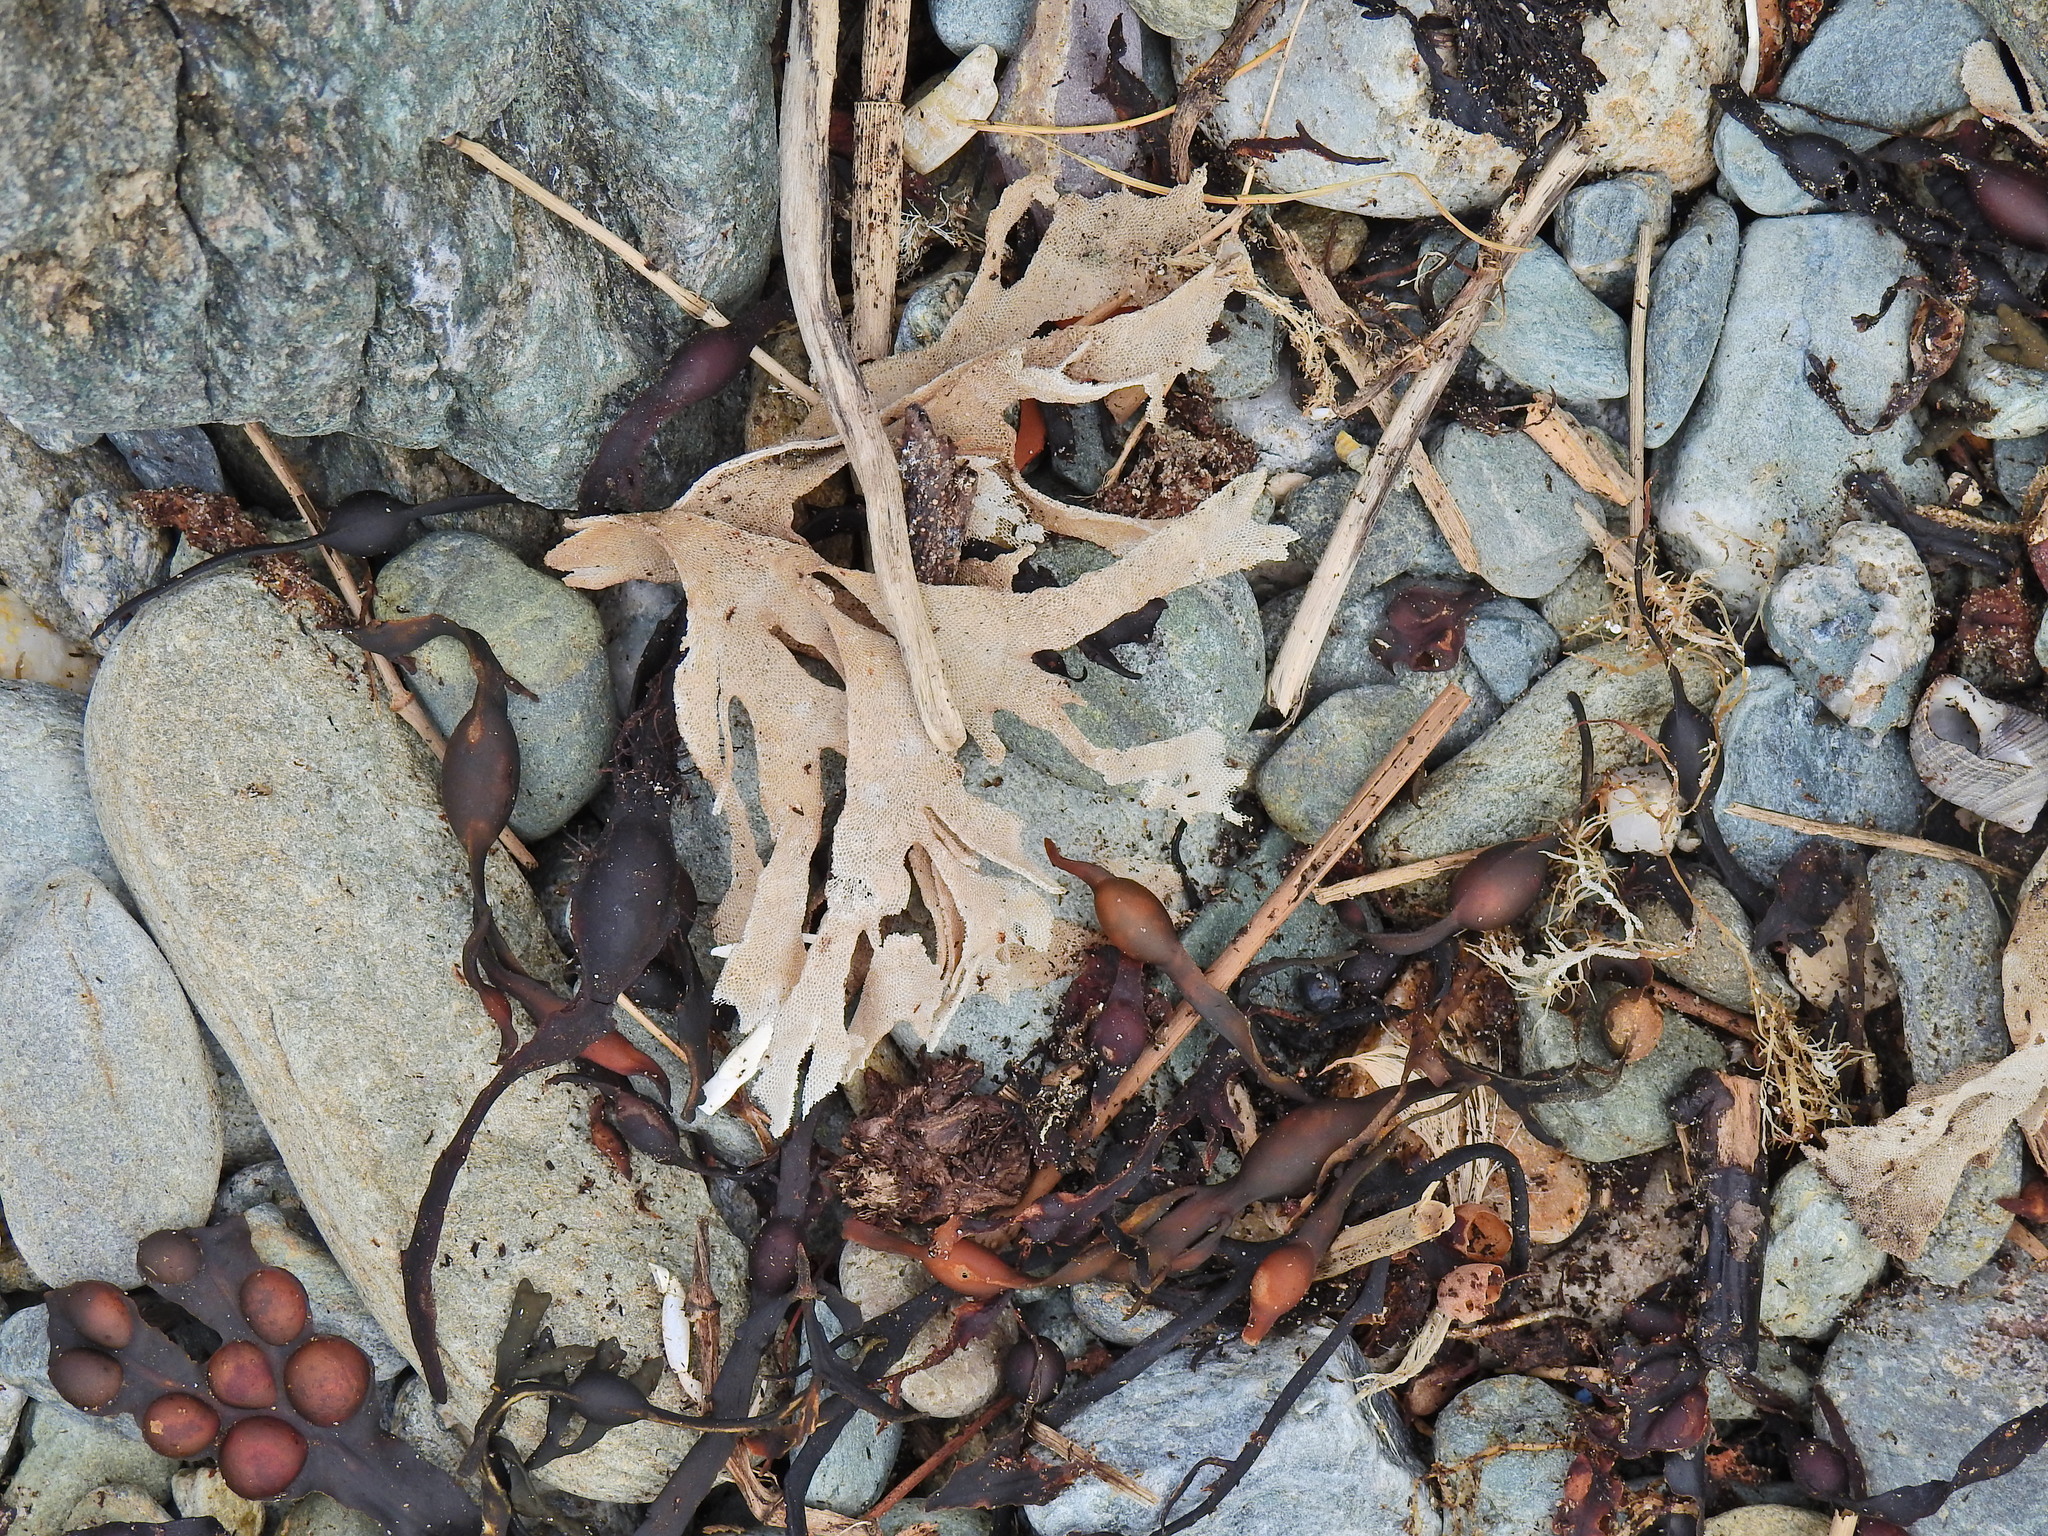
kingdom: Animalia
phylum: Bryozoa
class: Gymnolaemata
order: Cheilostomatida
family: Flustridae
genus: Flustra
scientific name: Flustra foliacea
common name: Hornwrack
